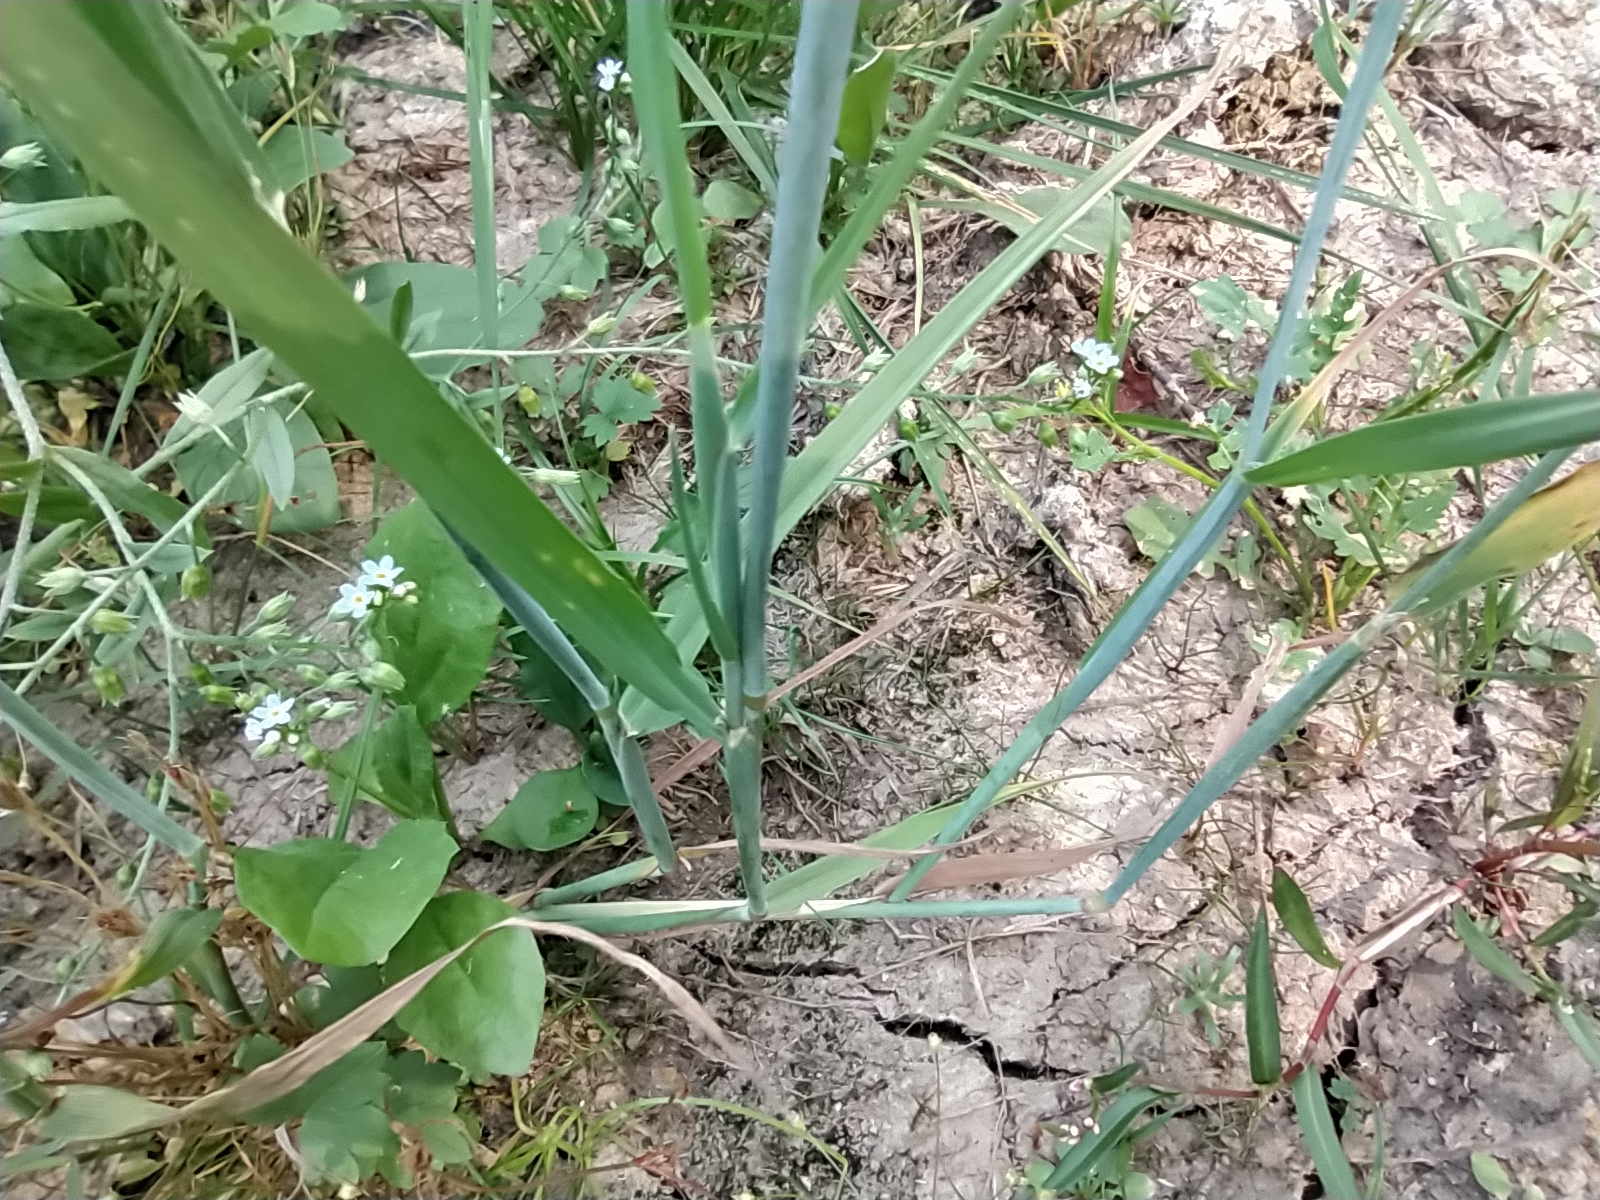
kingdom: Plantae
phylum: Tracheophyta
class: Liliopsida
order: Poales
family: Poaceae
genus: Alopecurus
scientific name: Alopecurus aequalis
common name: Orange foxtail
